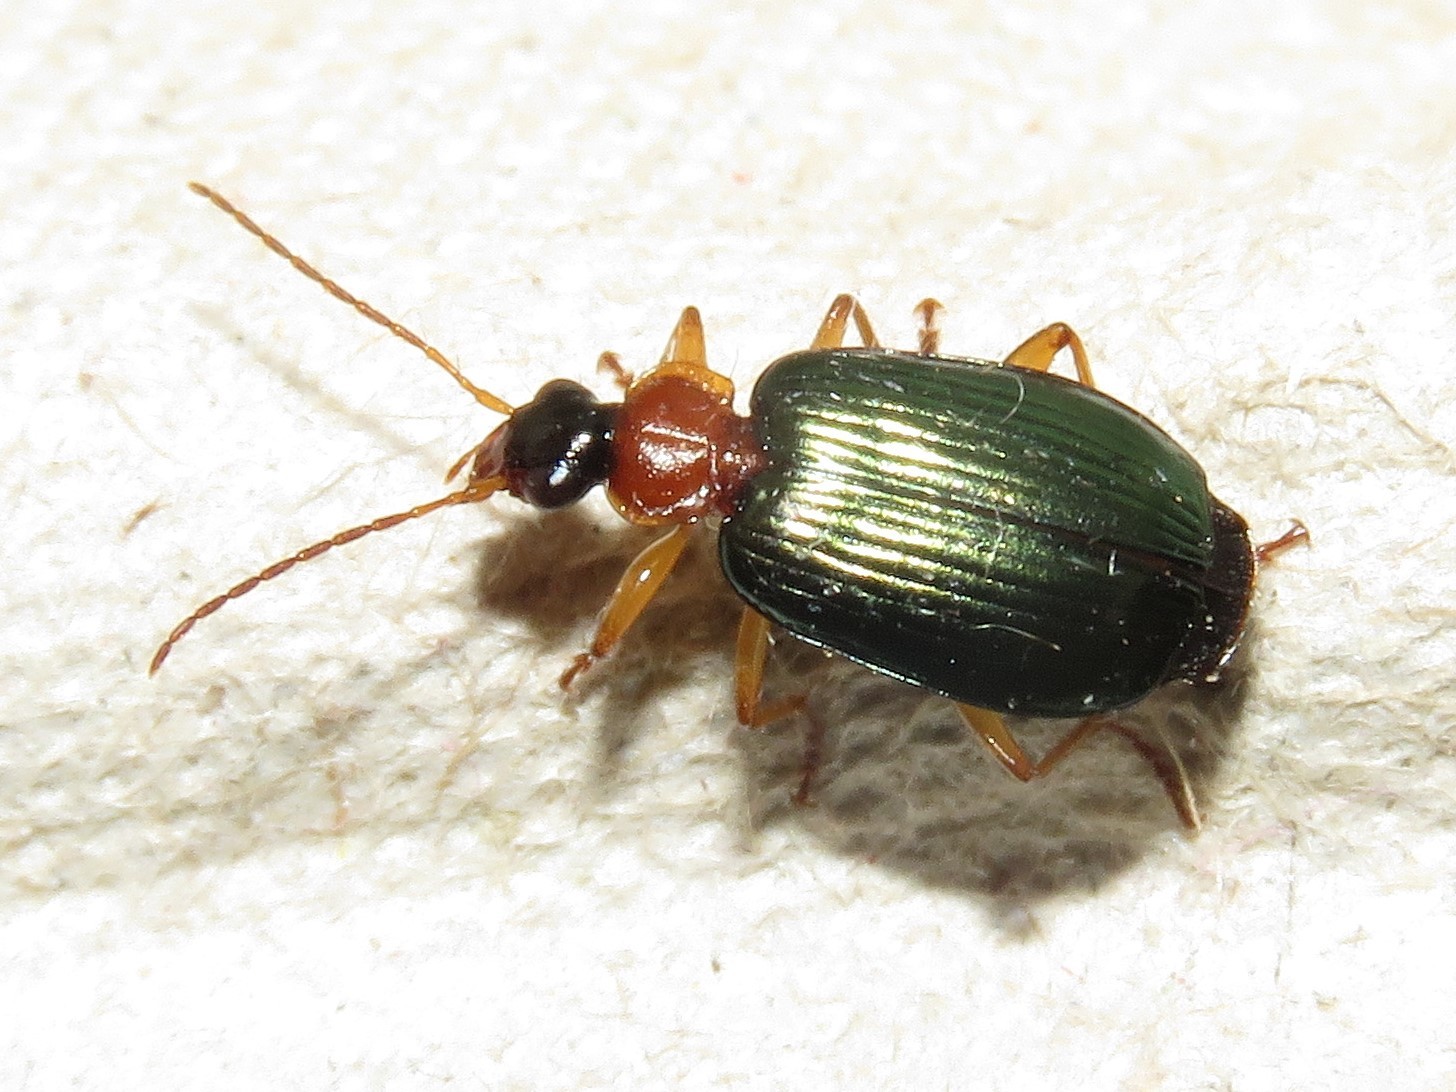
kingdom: Animalia
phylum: Arthropoda
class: Insecta
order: Coleoptera
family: Carabidae
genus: Lebia
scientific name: Lebia tricolor
